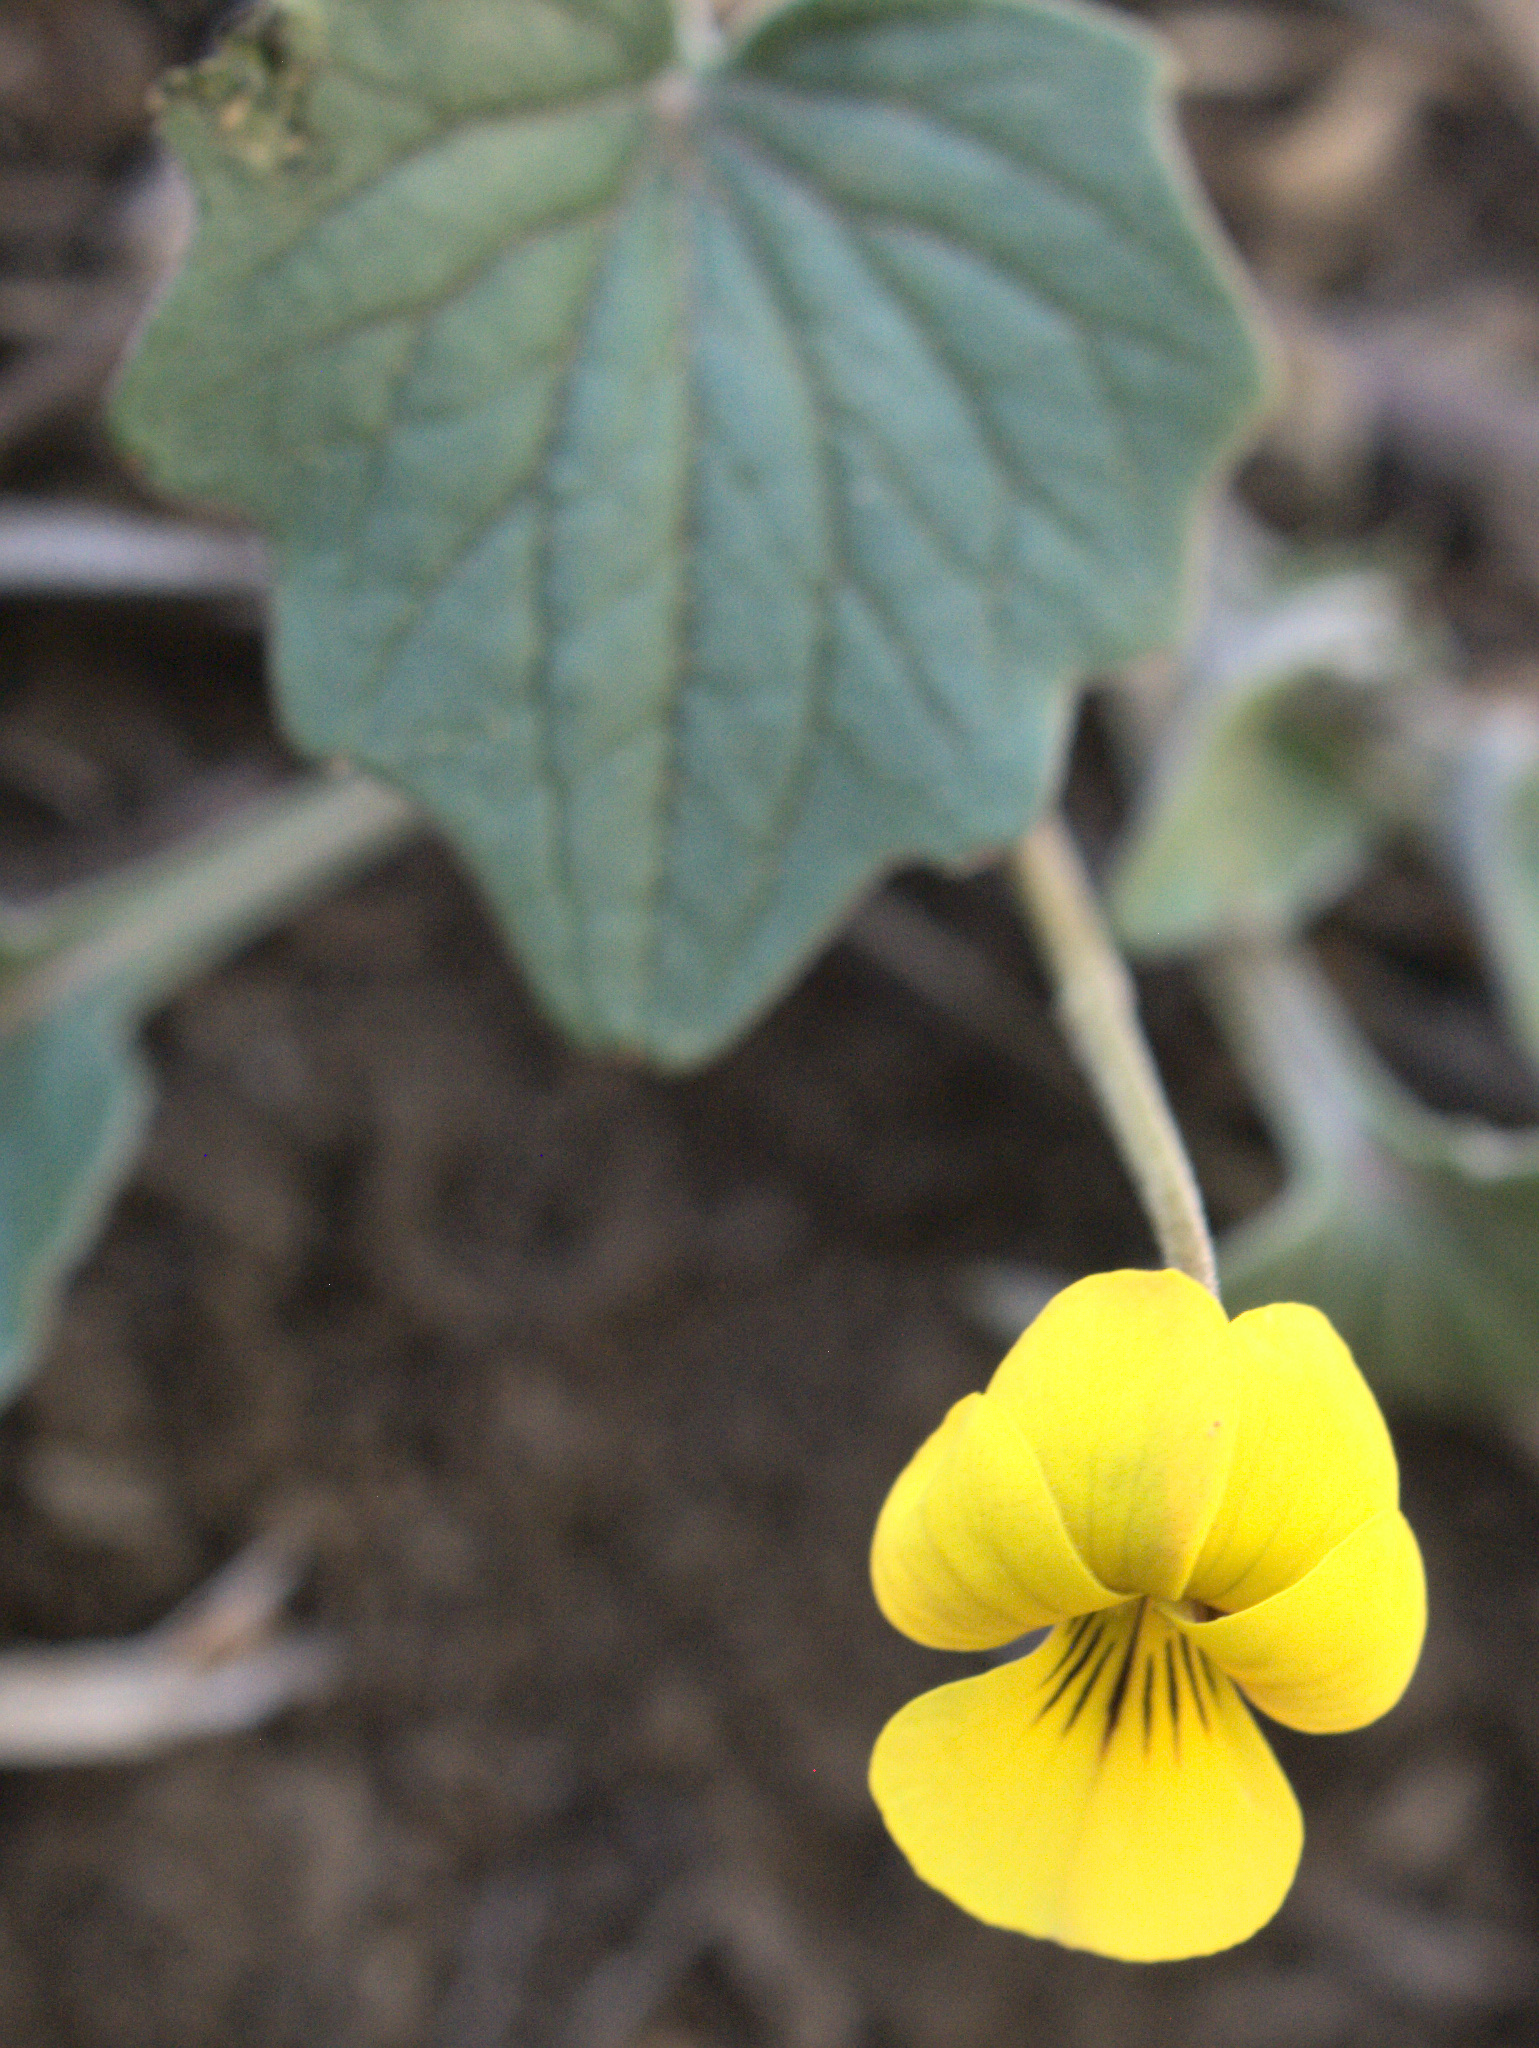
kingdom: Plantae
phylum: Tracheophyta
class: Magnoliopsida
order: Malpighiales
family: Violaceae
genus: Viola
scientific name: Viola purpurea
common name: Pine violet
